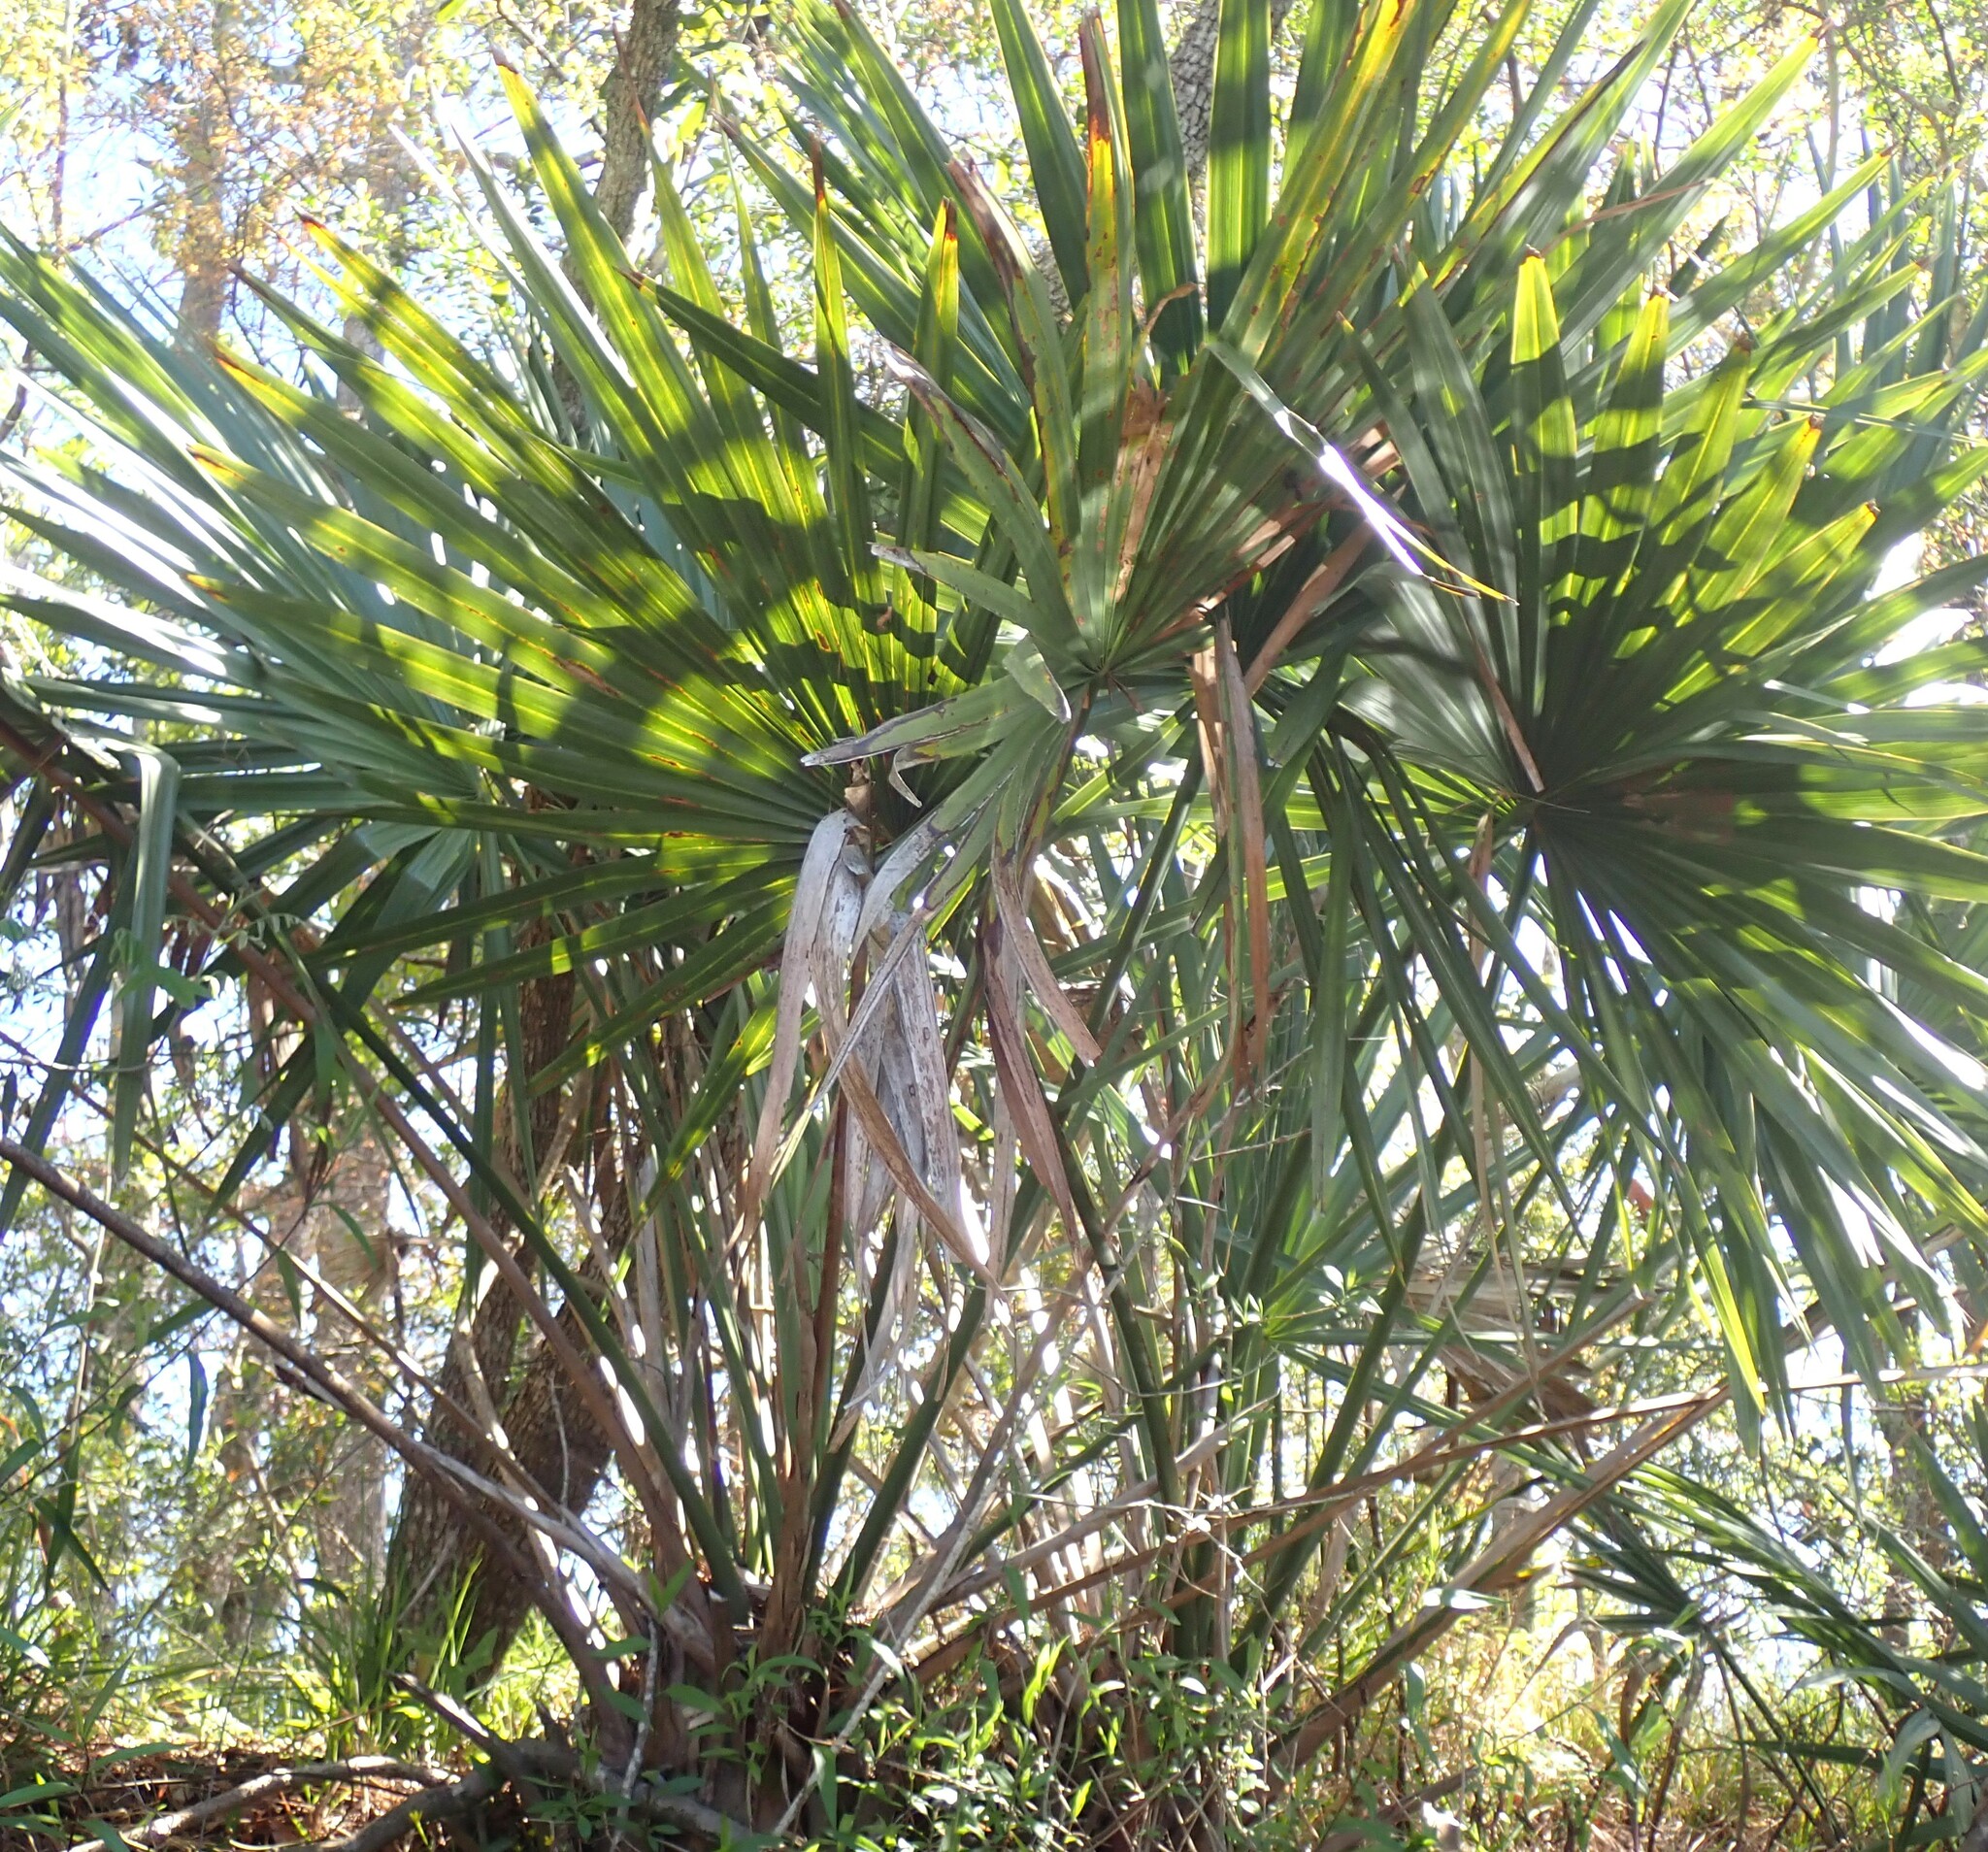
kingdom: Plantae
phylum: Tracheophyta
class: Liliopsida
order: Arecales
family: Arecaceae
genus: Sabal
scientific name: Sabal minor
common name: Dwarf palmetto
